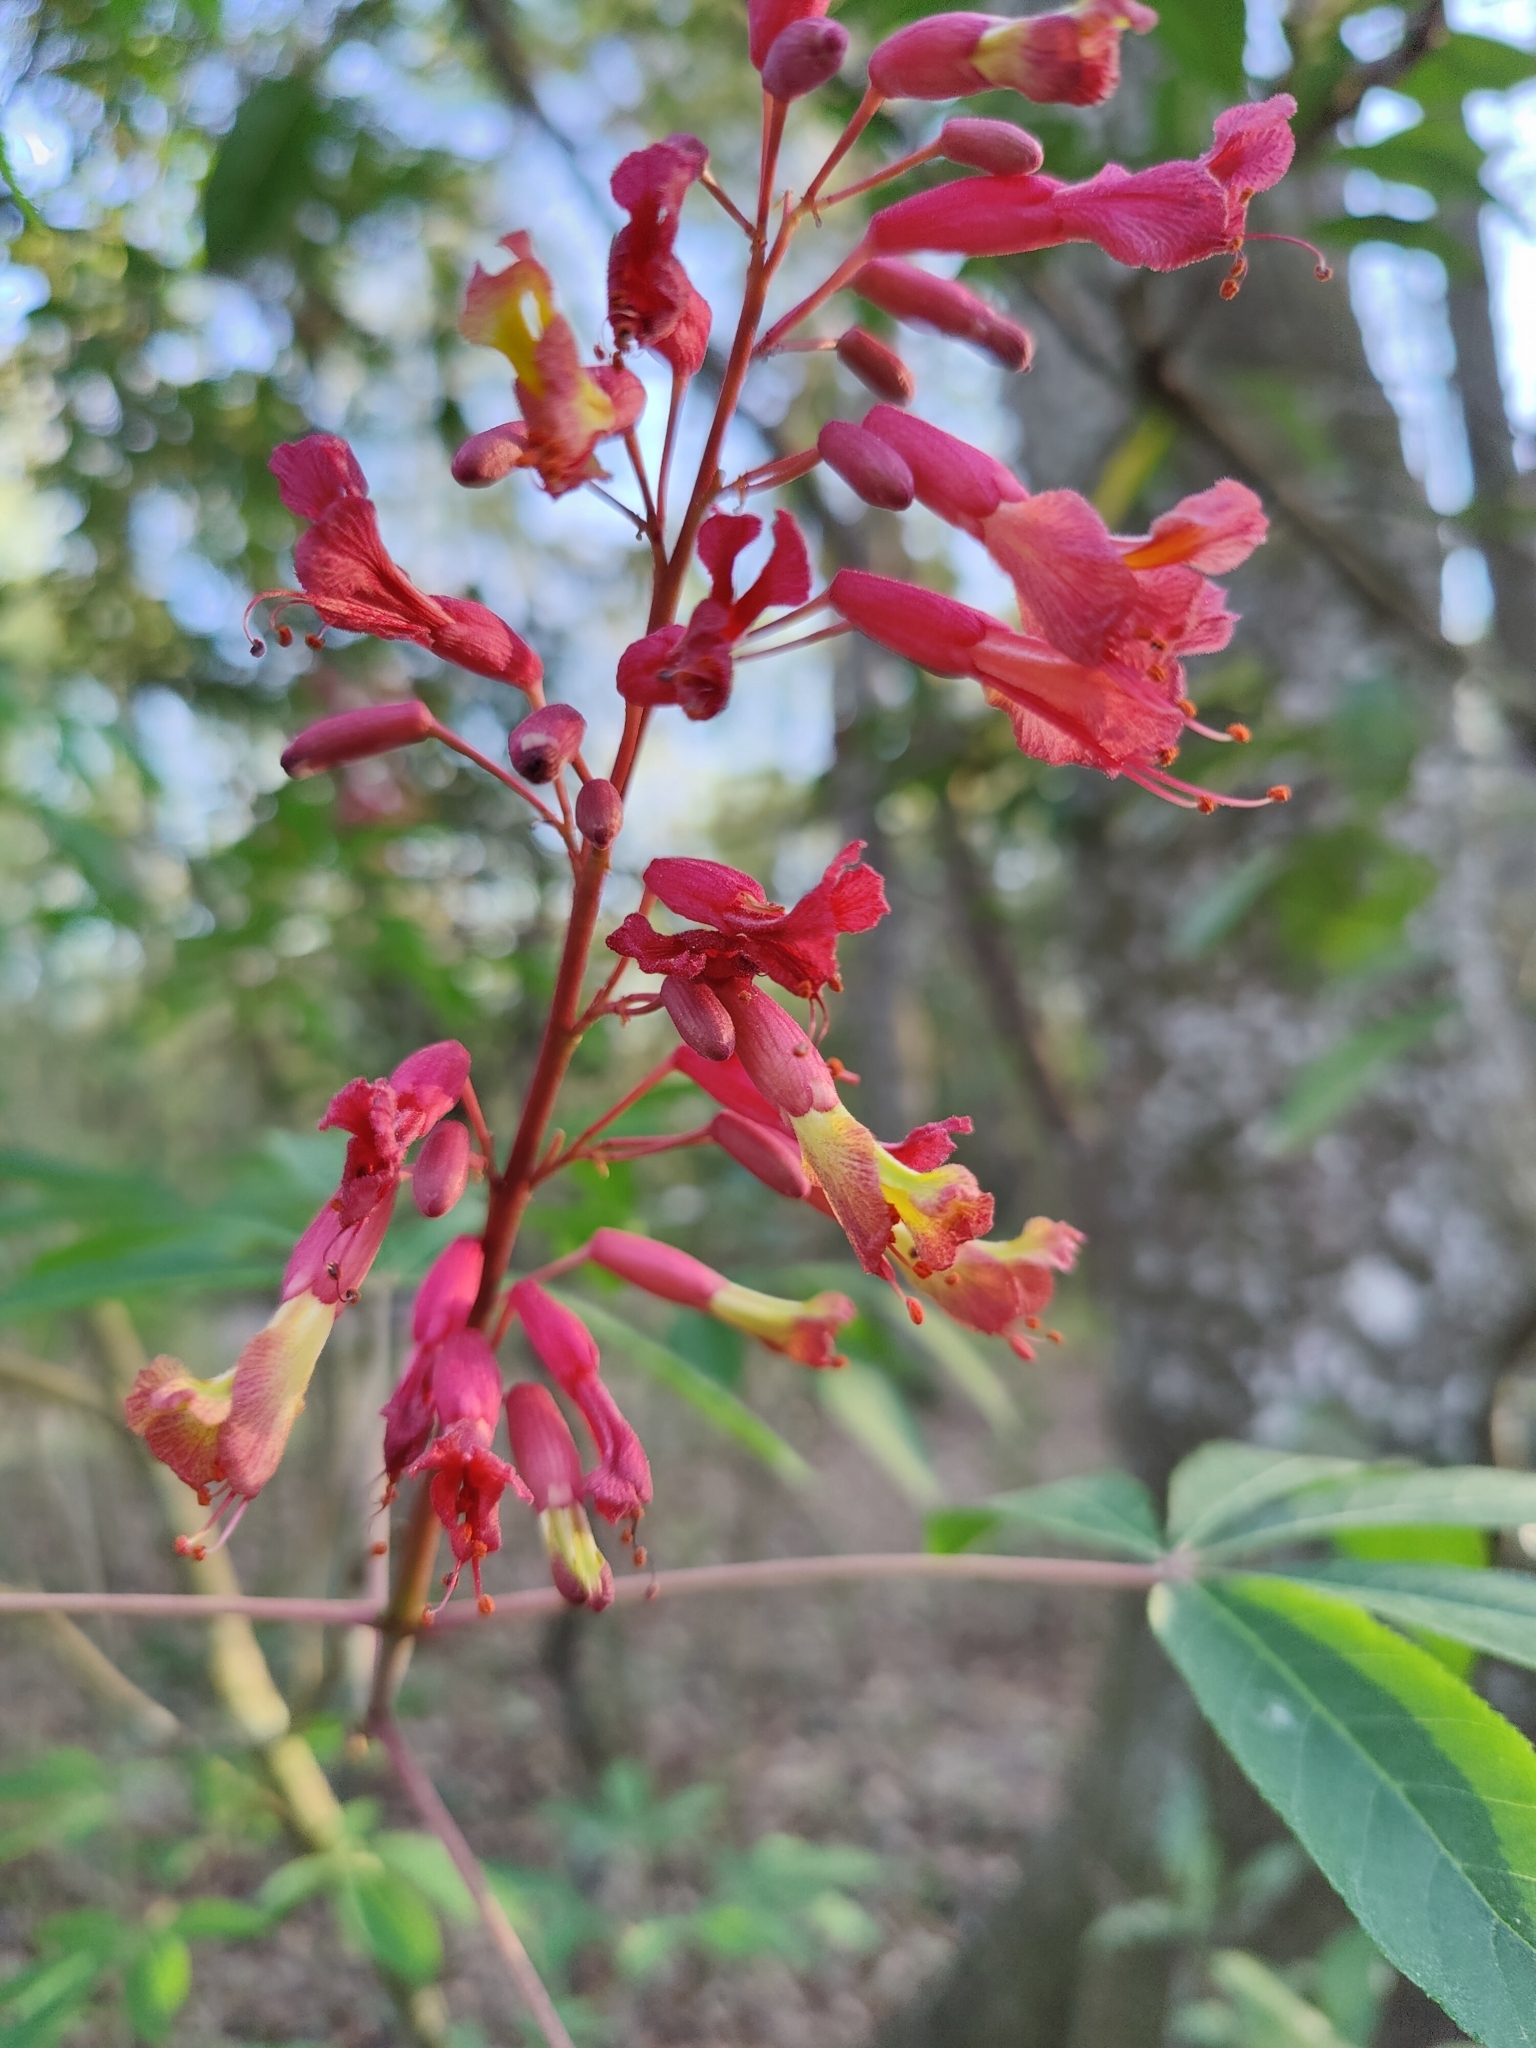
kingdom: Plantae
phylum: Tracheophyta
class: Magnoliopsida
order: Sapindales
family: Sapindaceae
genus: Aesculus
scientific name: Aesculus pavia
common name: Red buckeye
